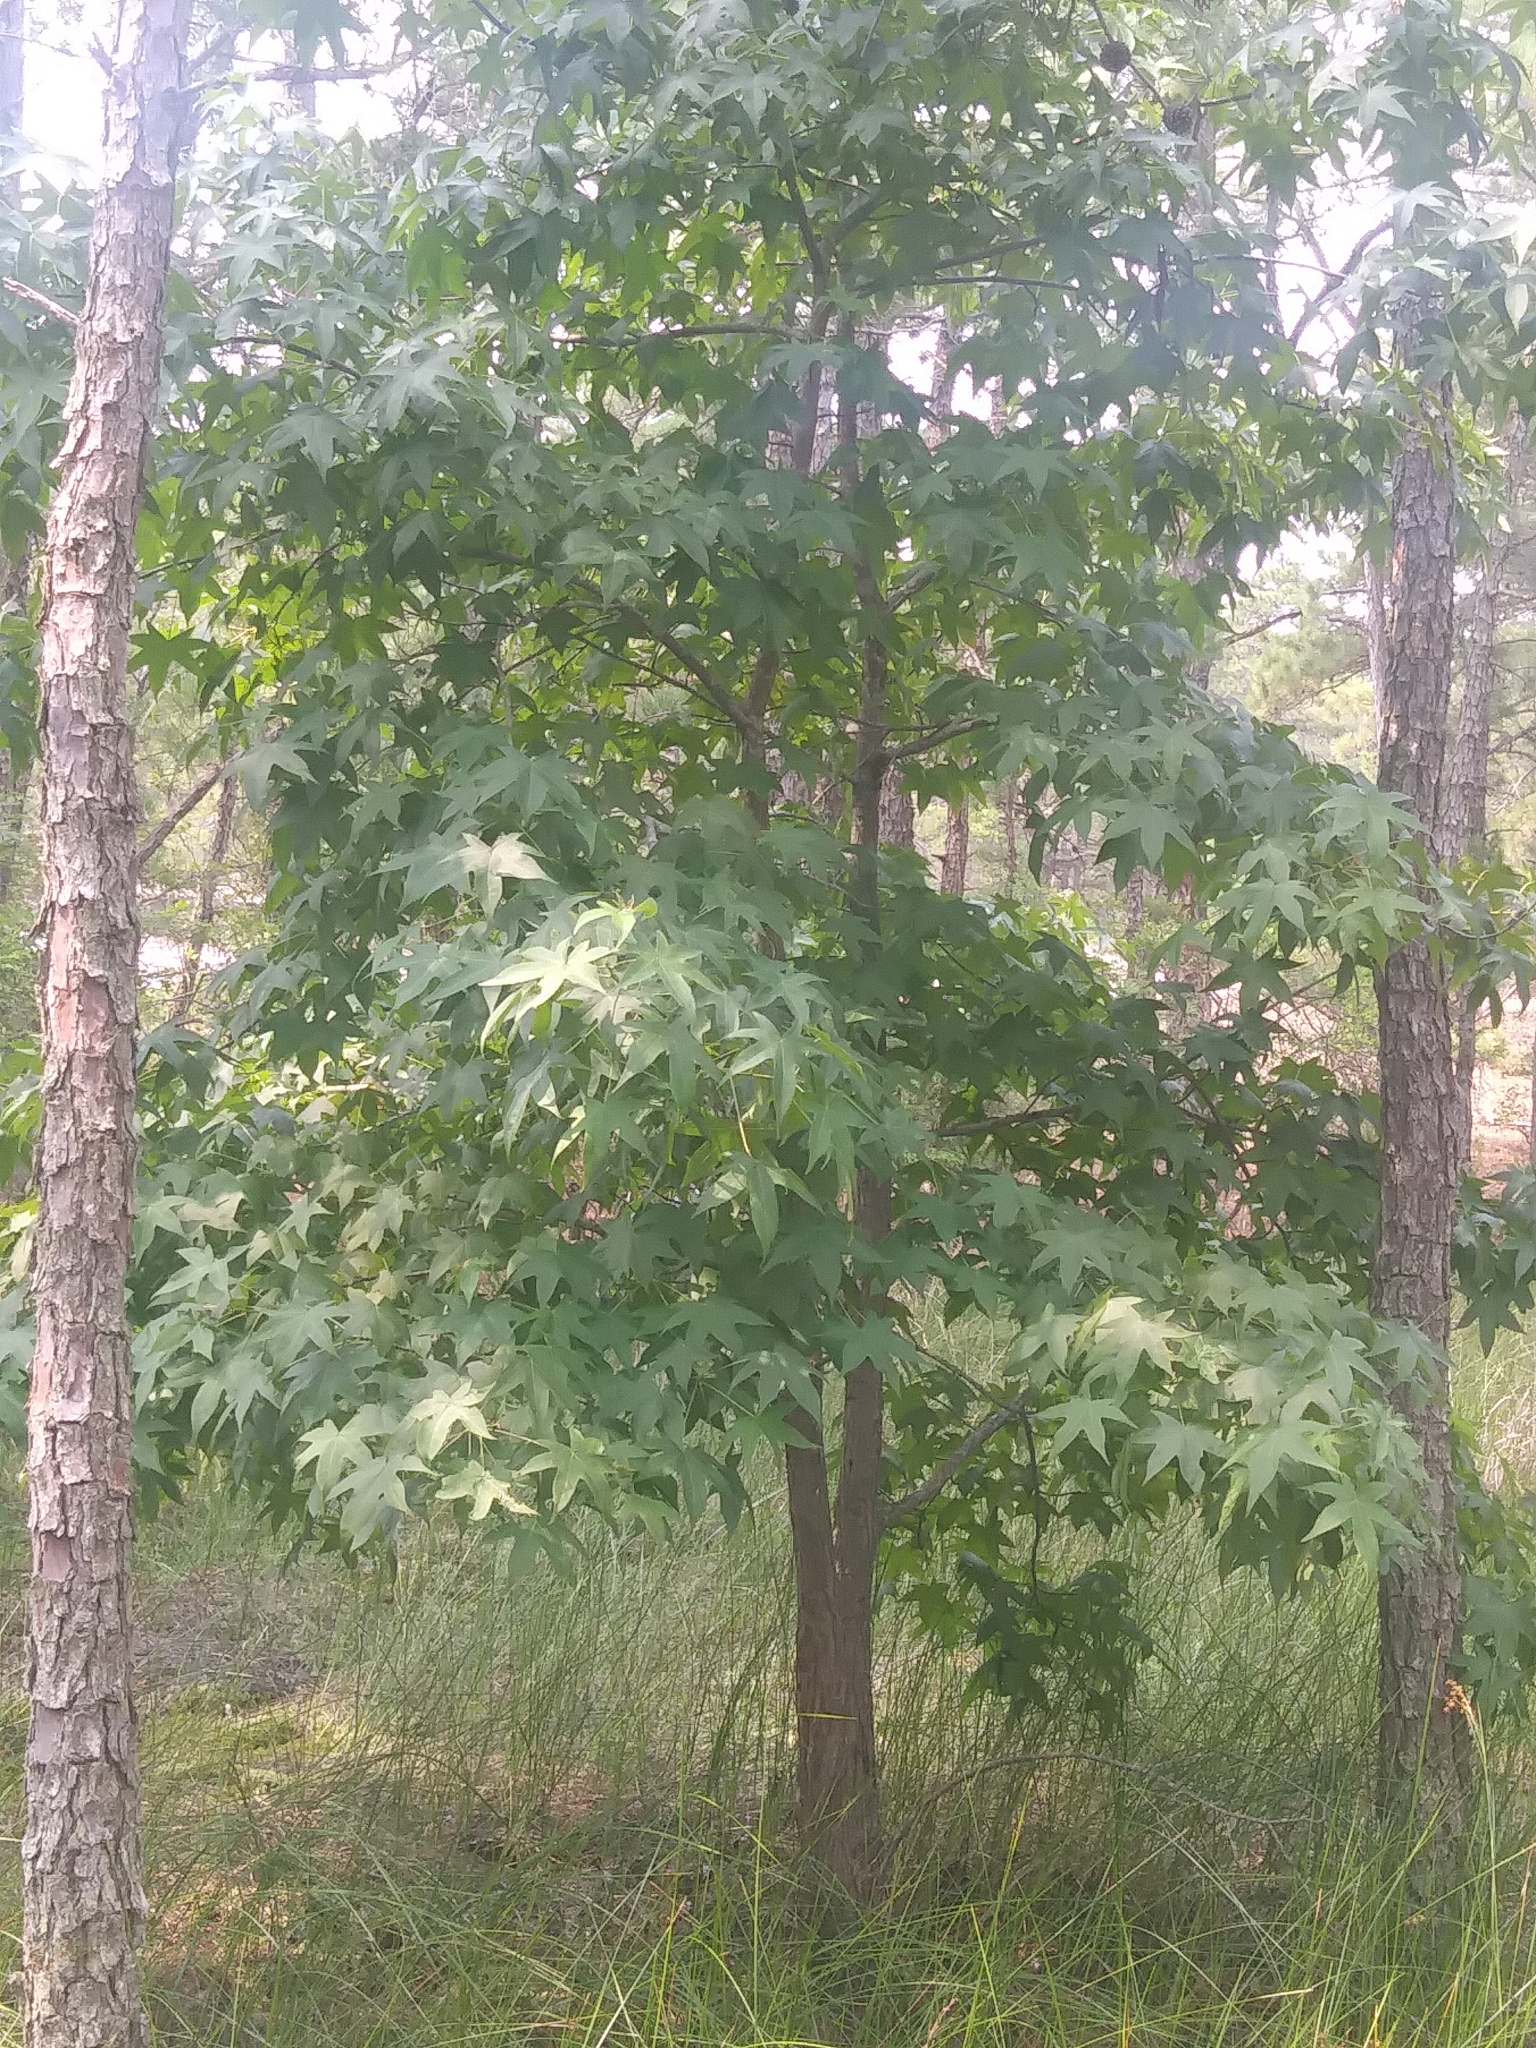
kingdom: Plantae
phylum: Tracheophyta
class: Magnoliopsida
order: Saxifragales
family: Altingiaceae
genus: Liquidambar
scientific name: Liquidambar styraciflua
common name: Sweet gum
